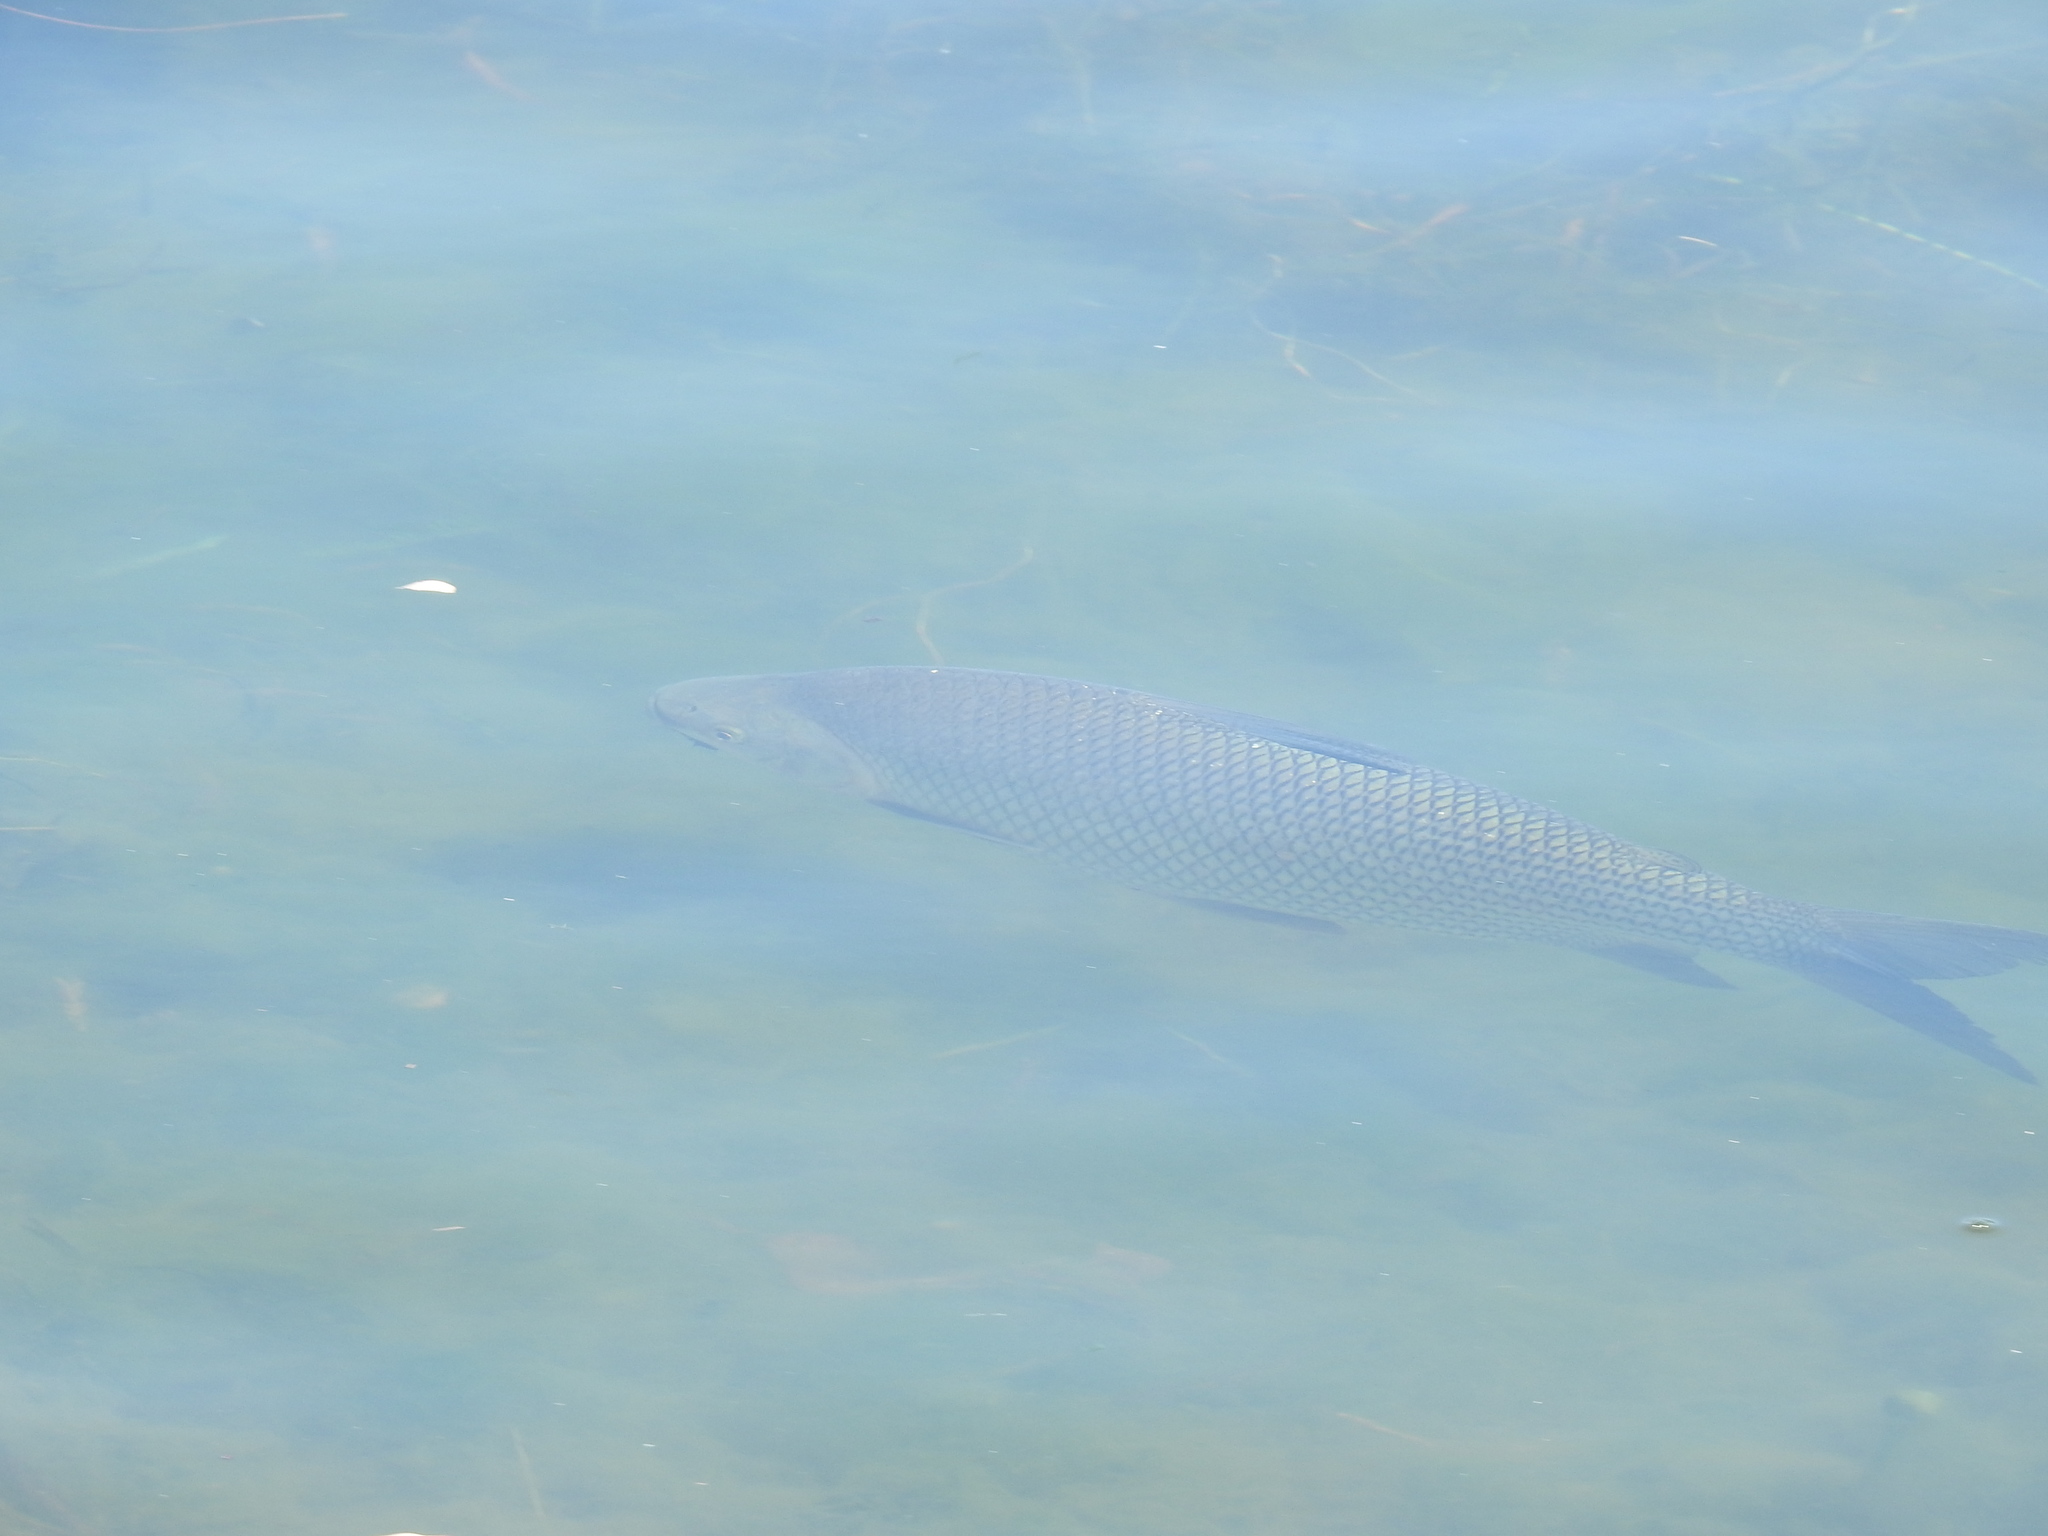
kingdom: Animalia
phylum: Chordata
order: Characiformes
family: Prochilodontidae
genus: Prochilodus
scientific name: Prochilodus lineatus
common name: Curimbata
